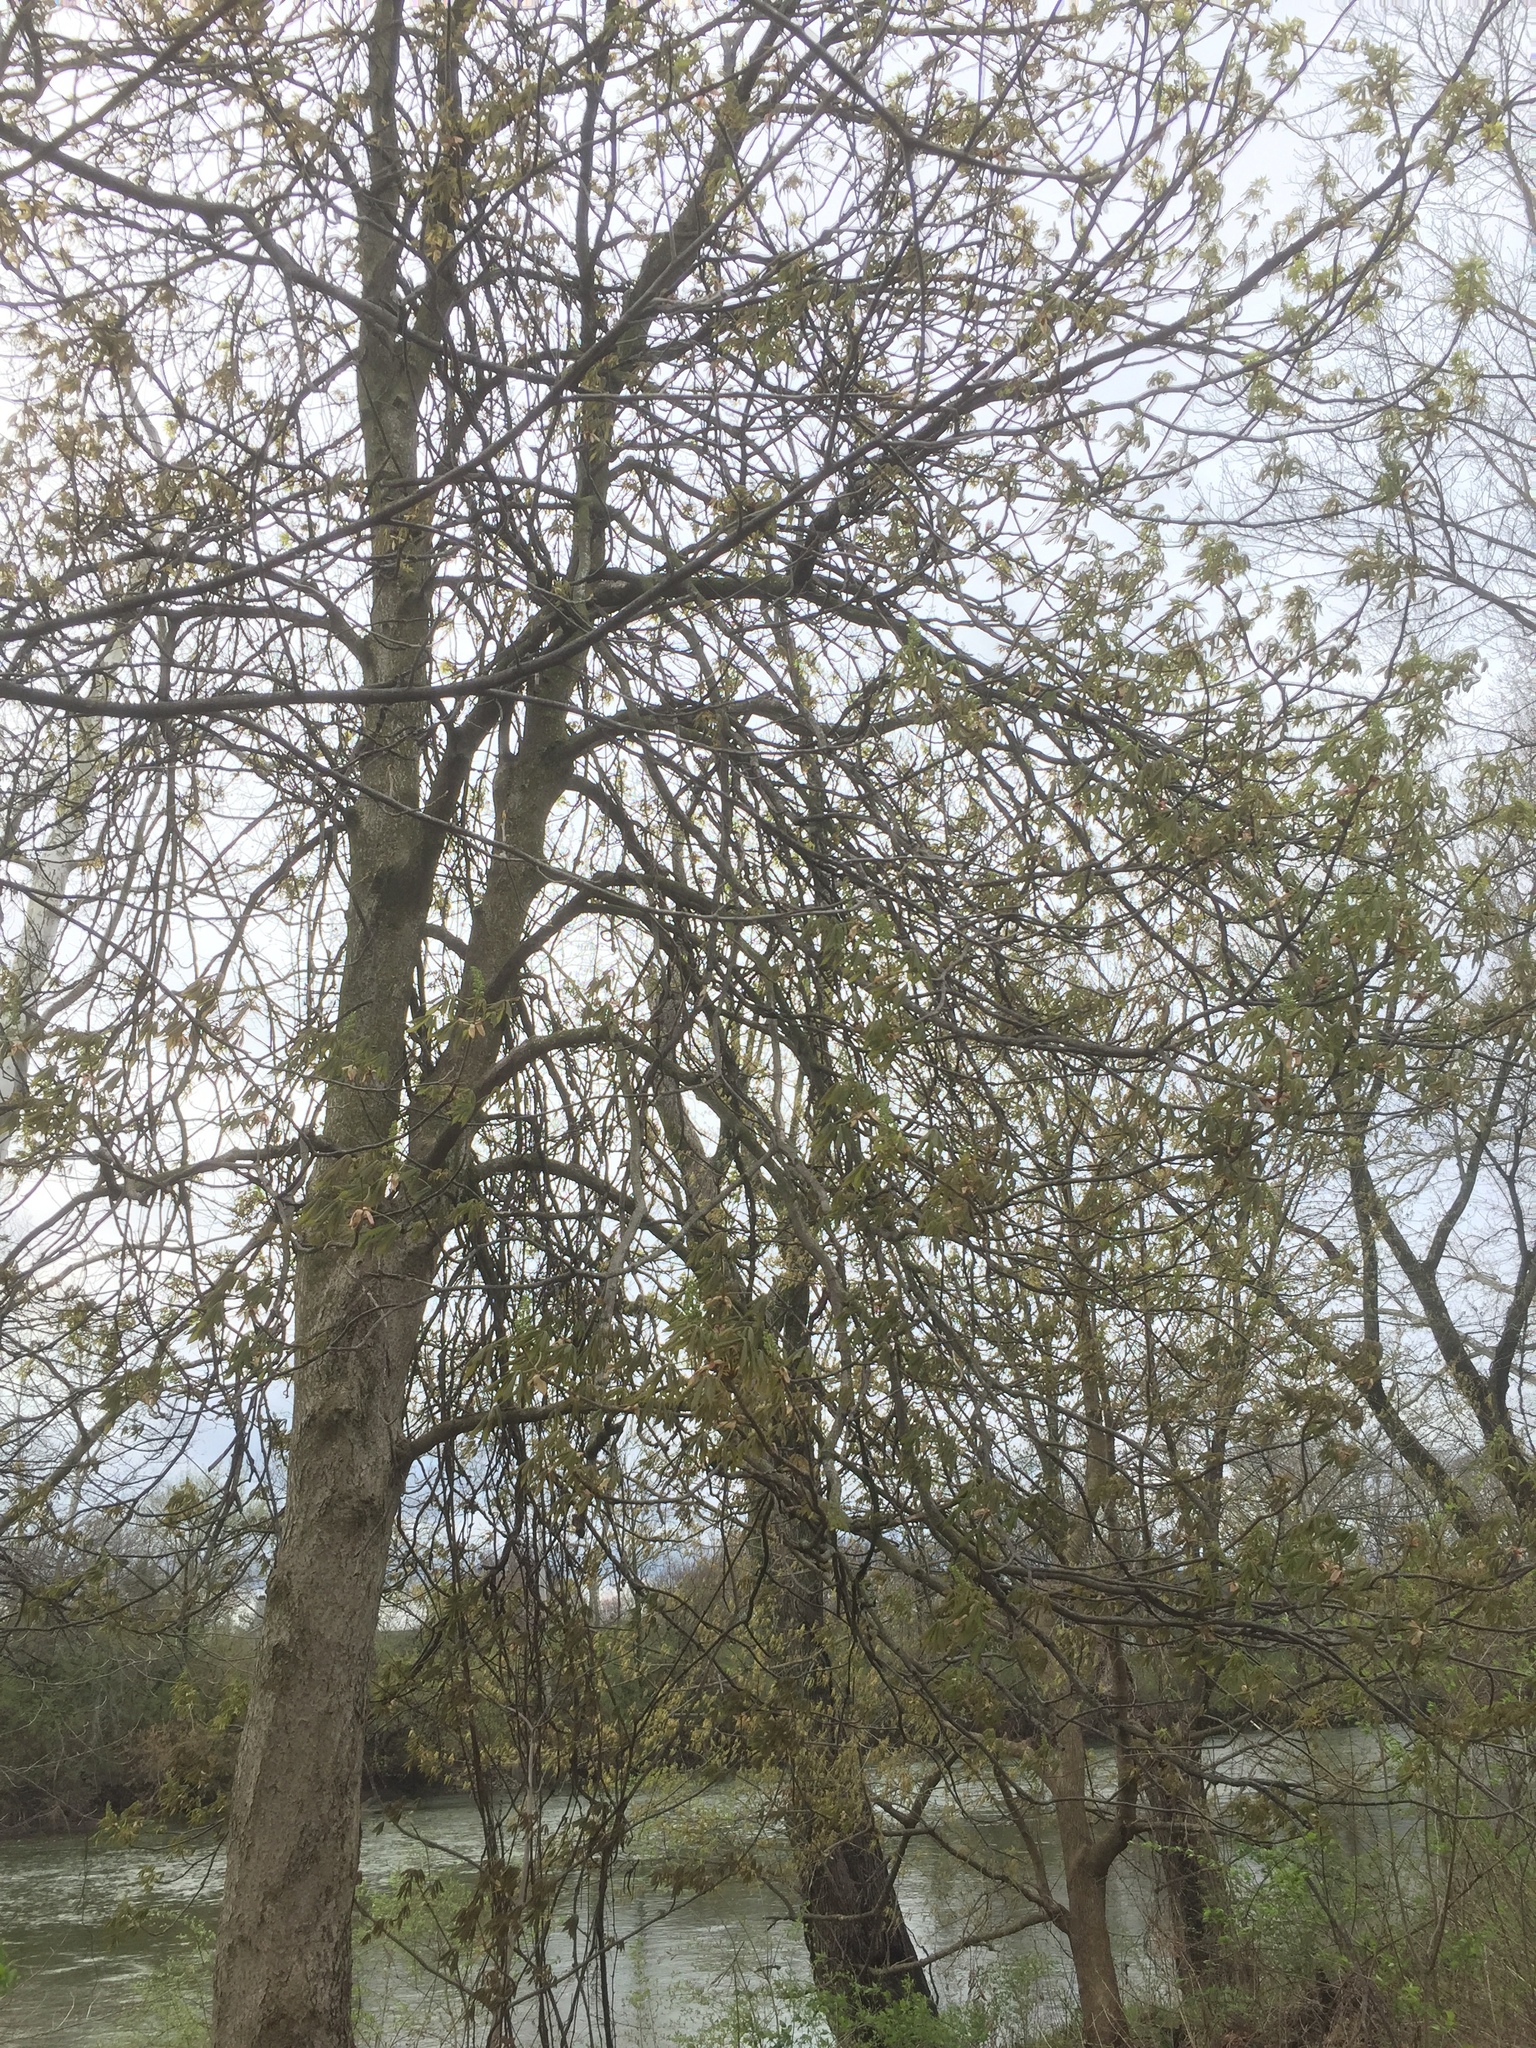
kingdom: Plantae
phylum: Tracheophyta
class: Magnoliopsida
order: Sapindales
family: Sapindaceae
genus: Aesculus
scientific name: Aesculus glabra
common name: Ohio buckeye
